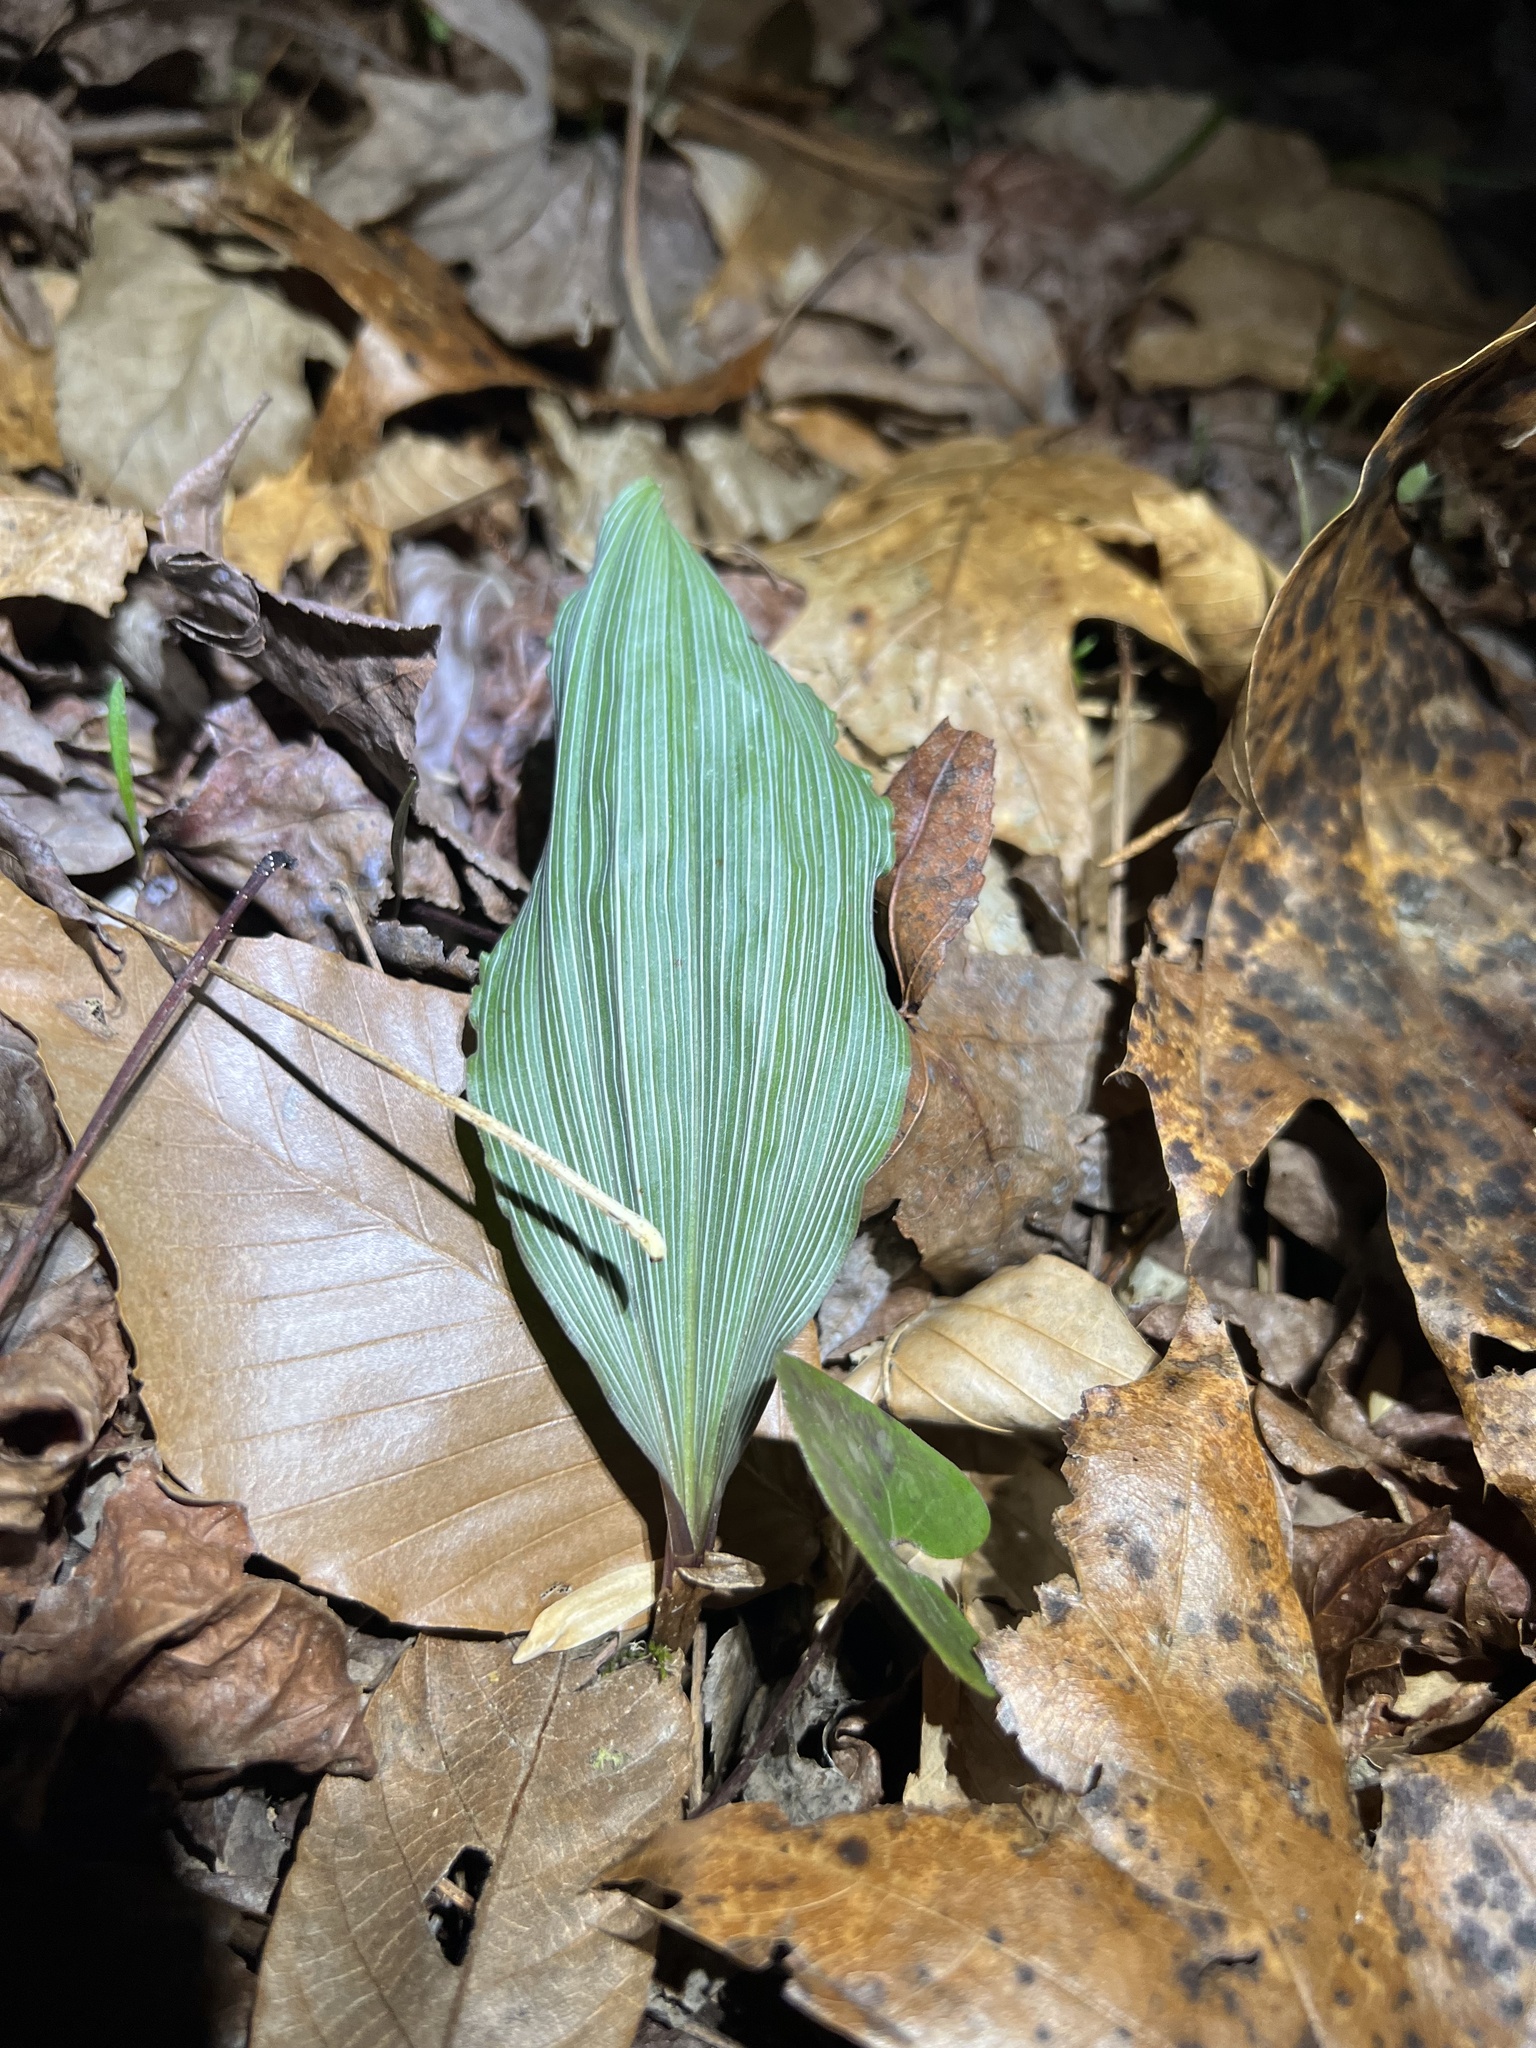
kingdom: Plantae
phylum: Tracheophyta
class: Liliopsida
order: Asparagales
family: Orchidaceae
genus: Aplectrum
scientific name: Aplectrum hyemale
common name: Adam-and-eve
